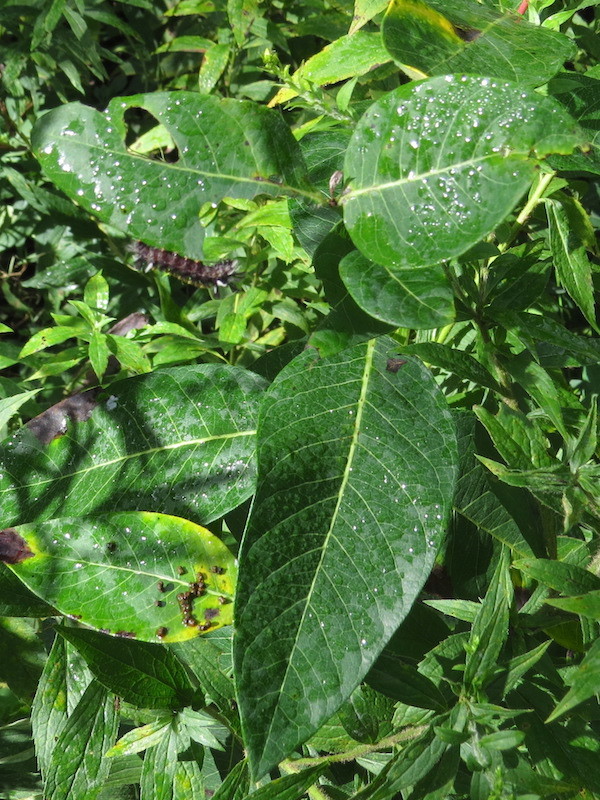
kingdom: Animalia
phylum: Arthropoda
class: Insecta
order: Lepidoptera
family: Erebidae
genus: Euchaetes
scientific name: Euchaetes egle
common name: Milkweed tussock moth
